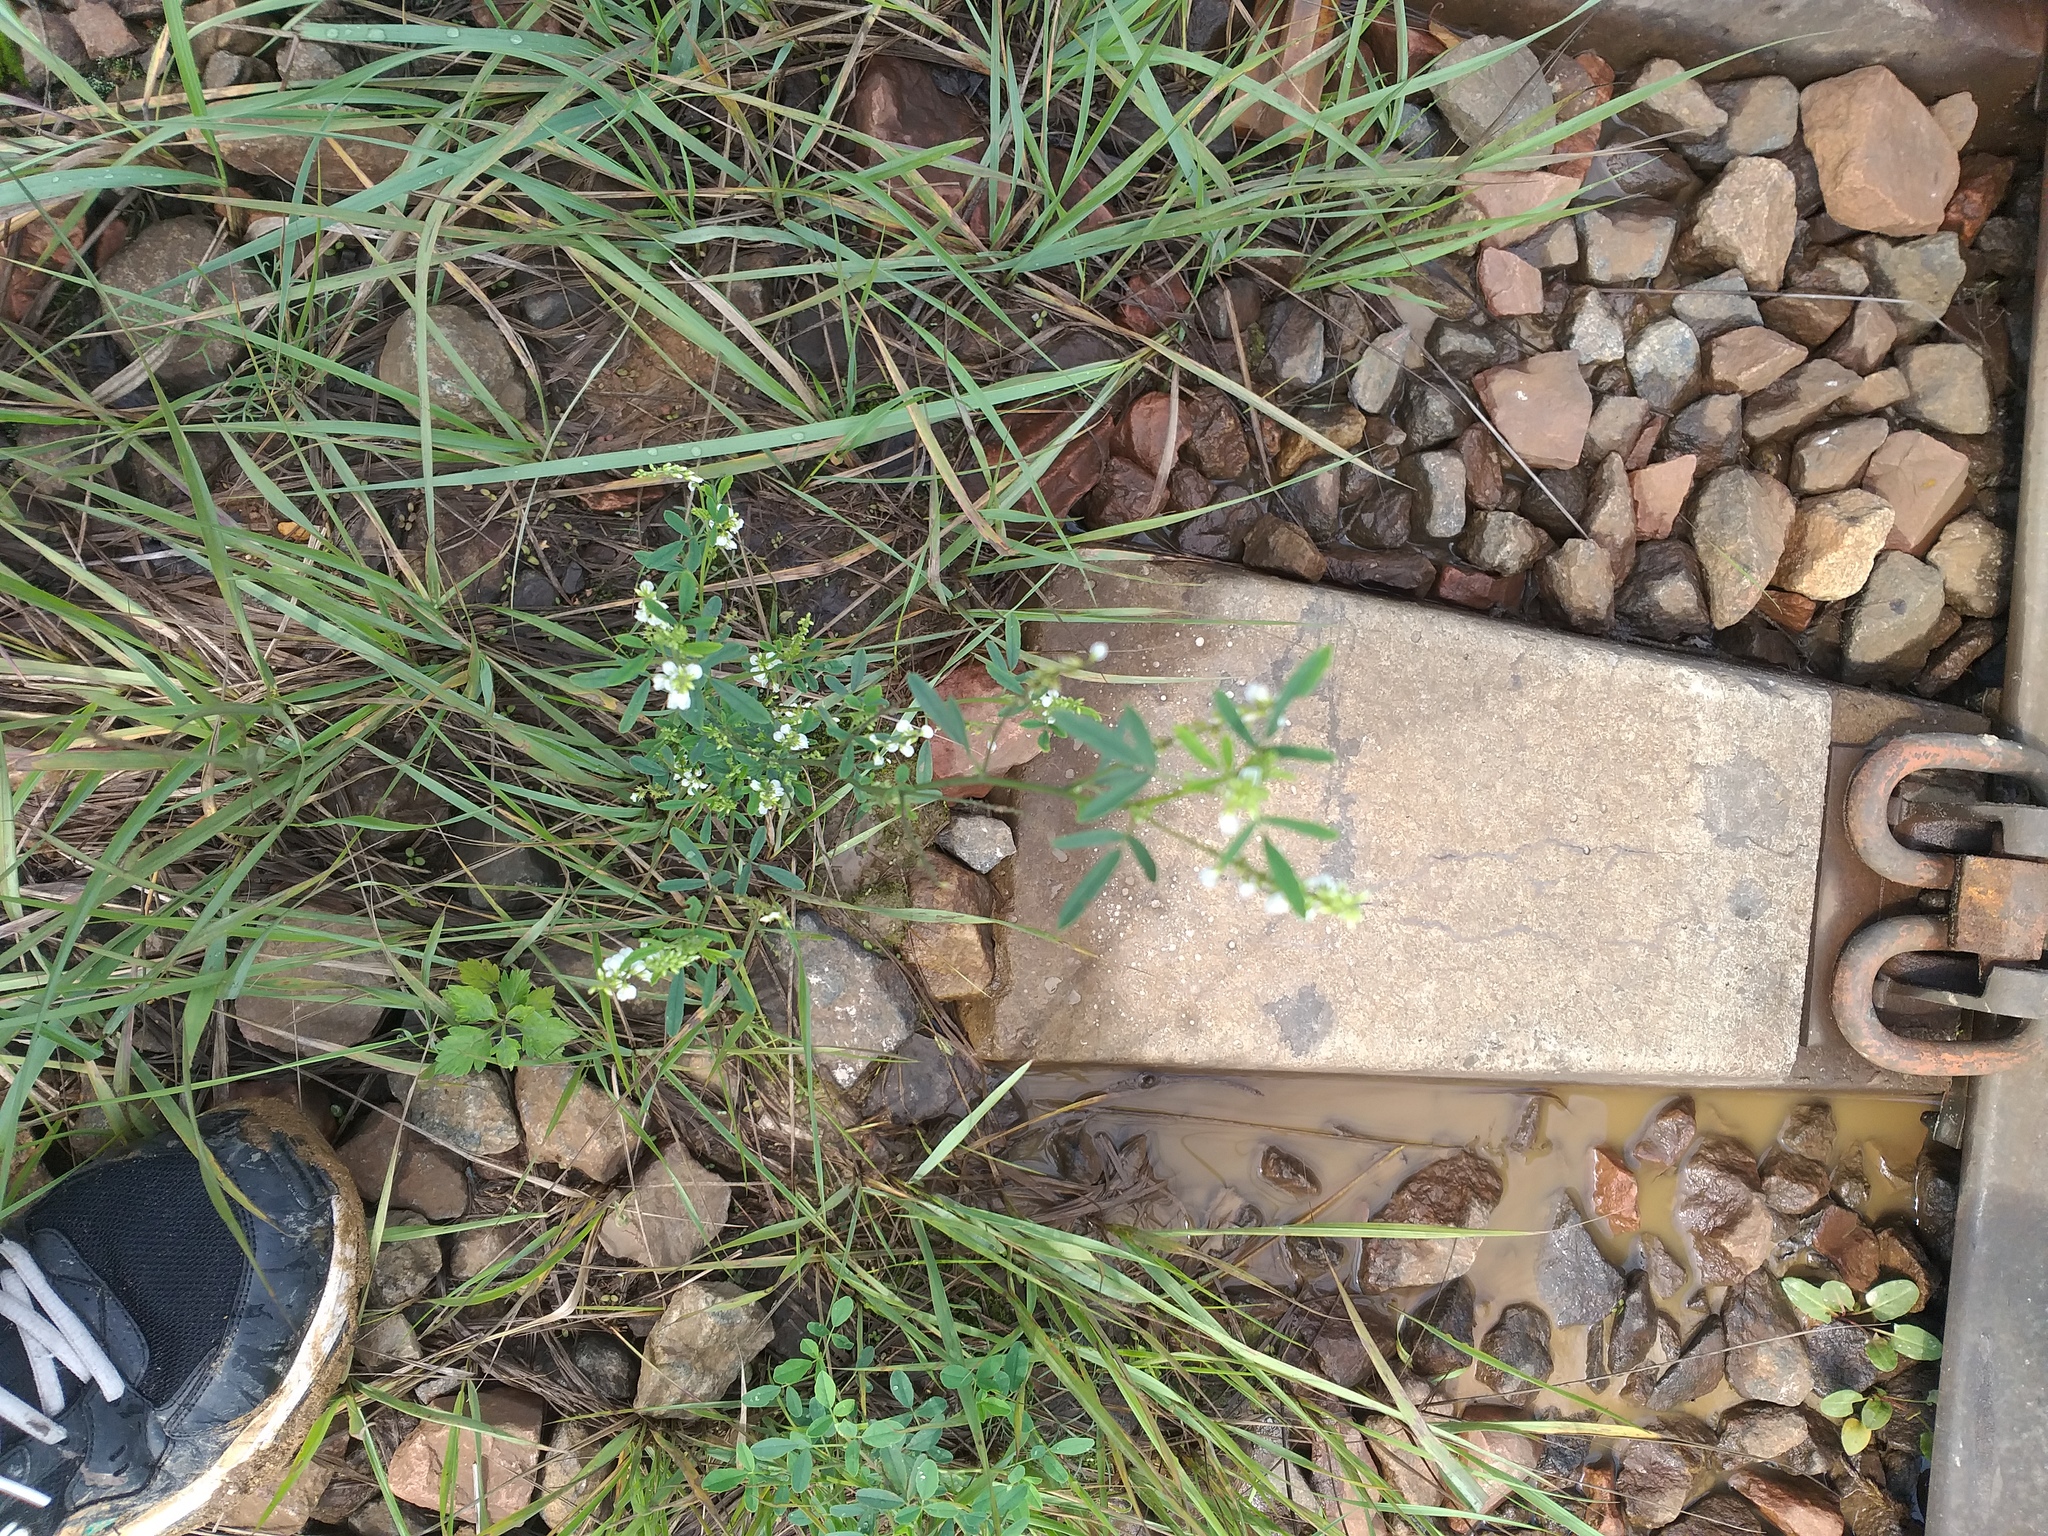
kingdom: Plantae
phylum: Tracheophyta
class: Magnoliopsida
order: Fabales
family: Fabaceae
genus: Melilotus
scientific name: Melilotus albus
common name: White melilot
